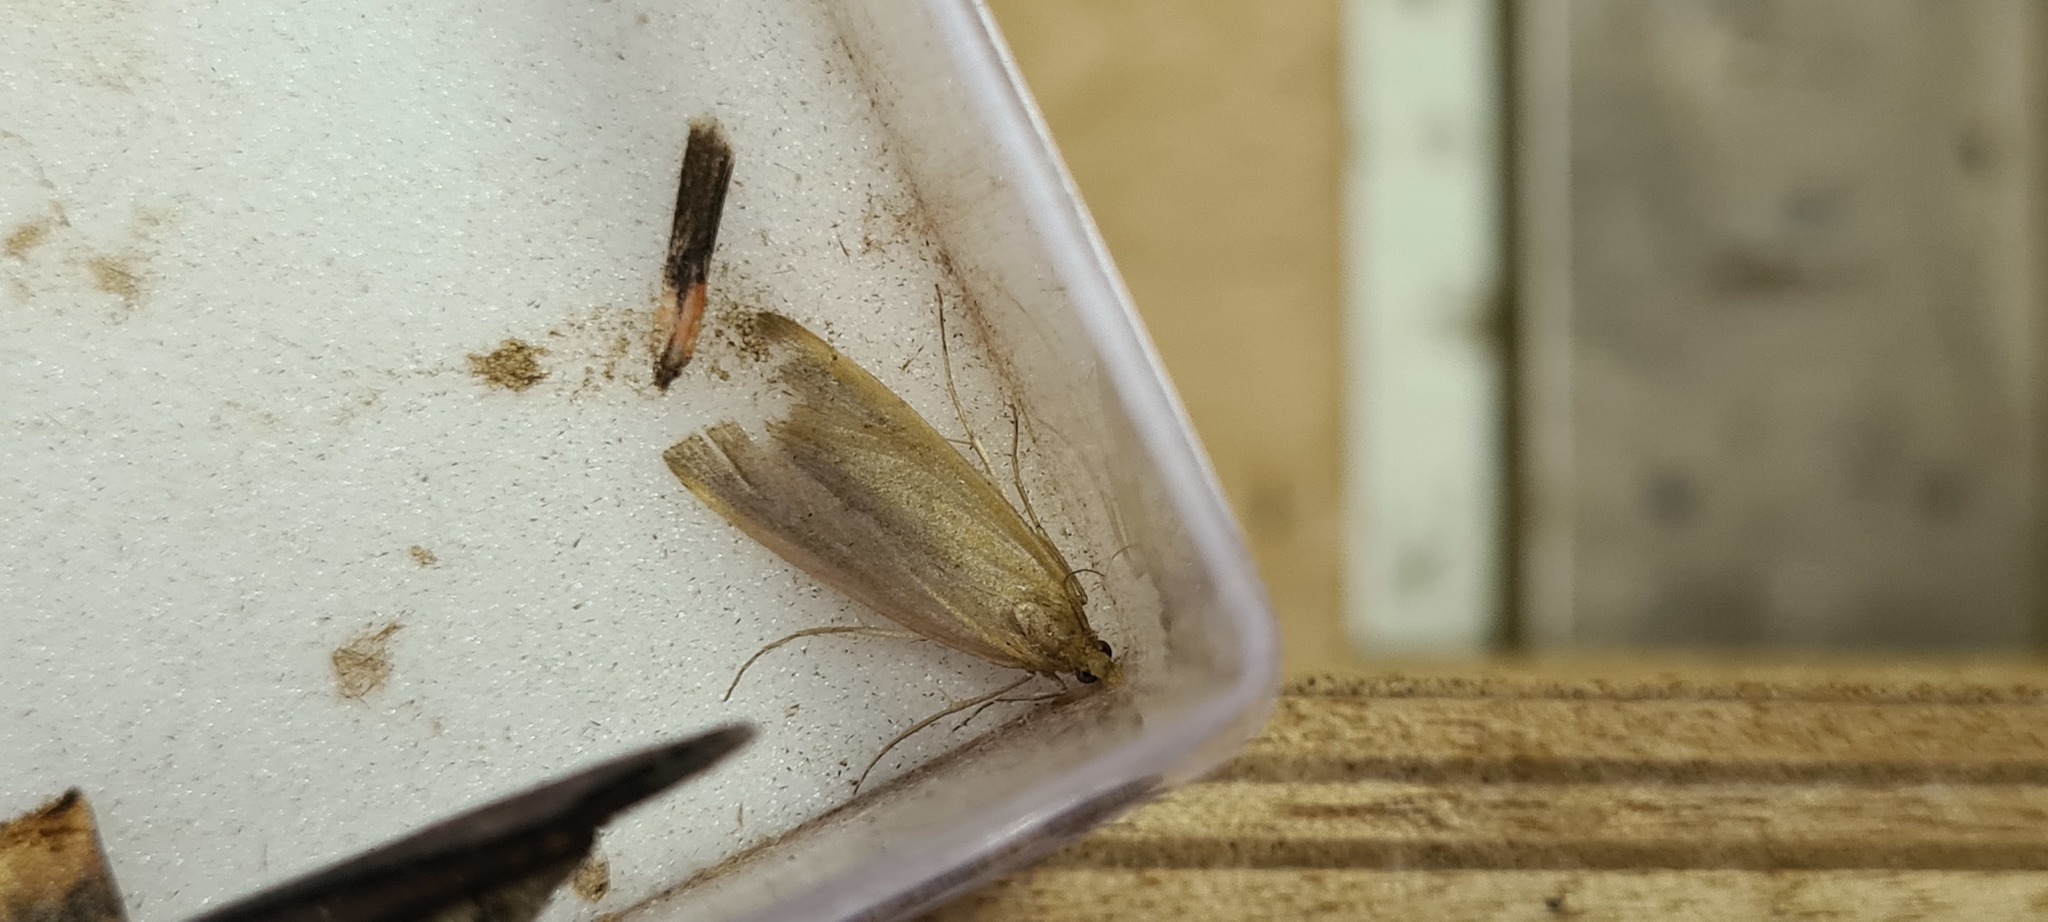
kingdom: Animalia
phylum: Arthropoda
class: Insecta
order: Lepidoptera
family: Crambidae
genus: Schoenobius
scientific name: Schoenobius gigantella
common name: Giant water-veneer
